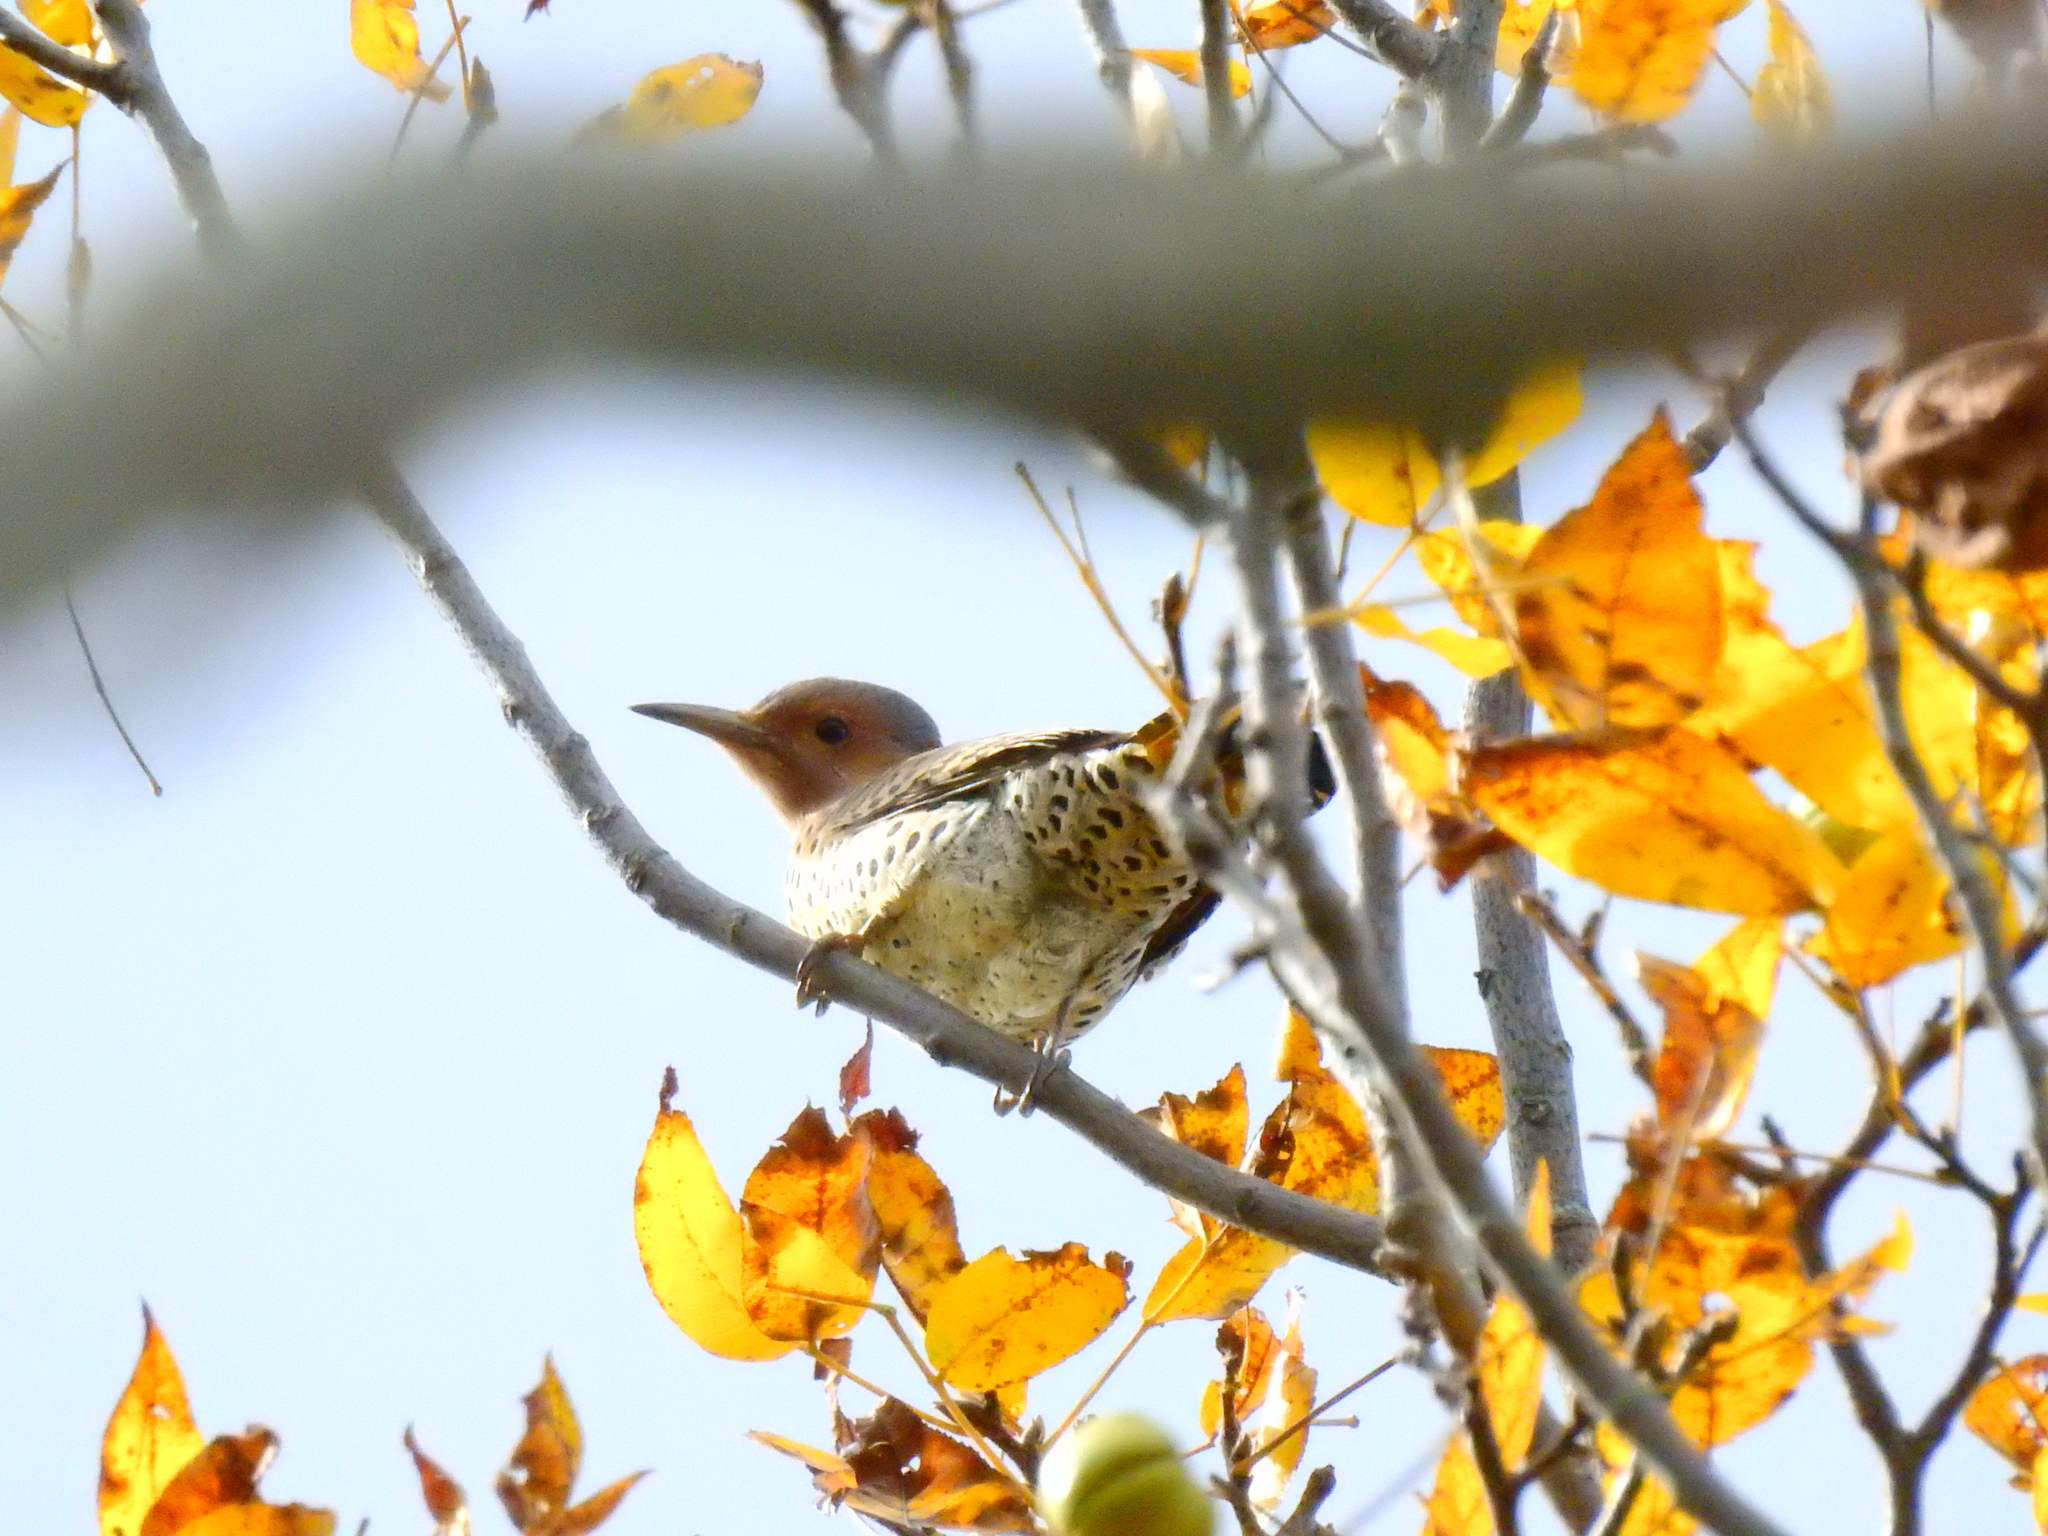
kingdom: Animalia
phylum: Chordata
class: Aves
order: Piciformes
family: Picidae
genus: Colaptes
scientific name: Colaptes auratus
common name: Northern flicker
